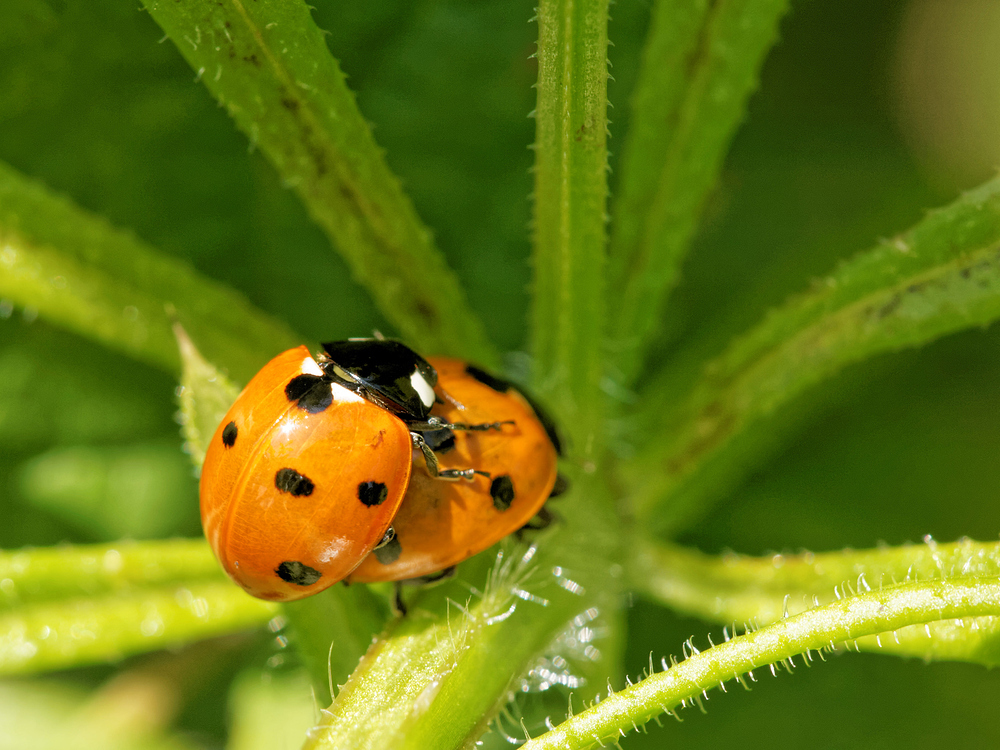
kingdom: Animalia
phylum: Arthropoda
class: Insecta
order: Coleoptera
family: Coccinellidae
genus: Coccinella
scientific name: Coccinella septempunctata
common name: Sevenspotted lady beetle
